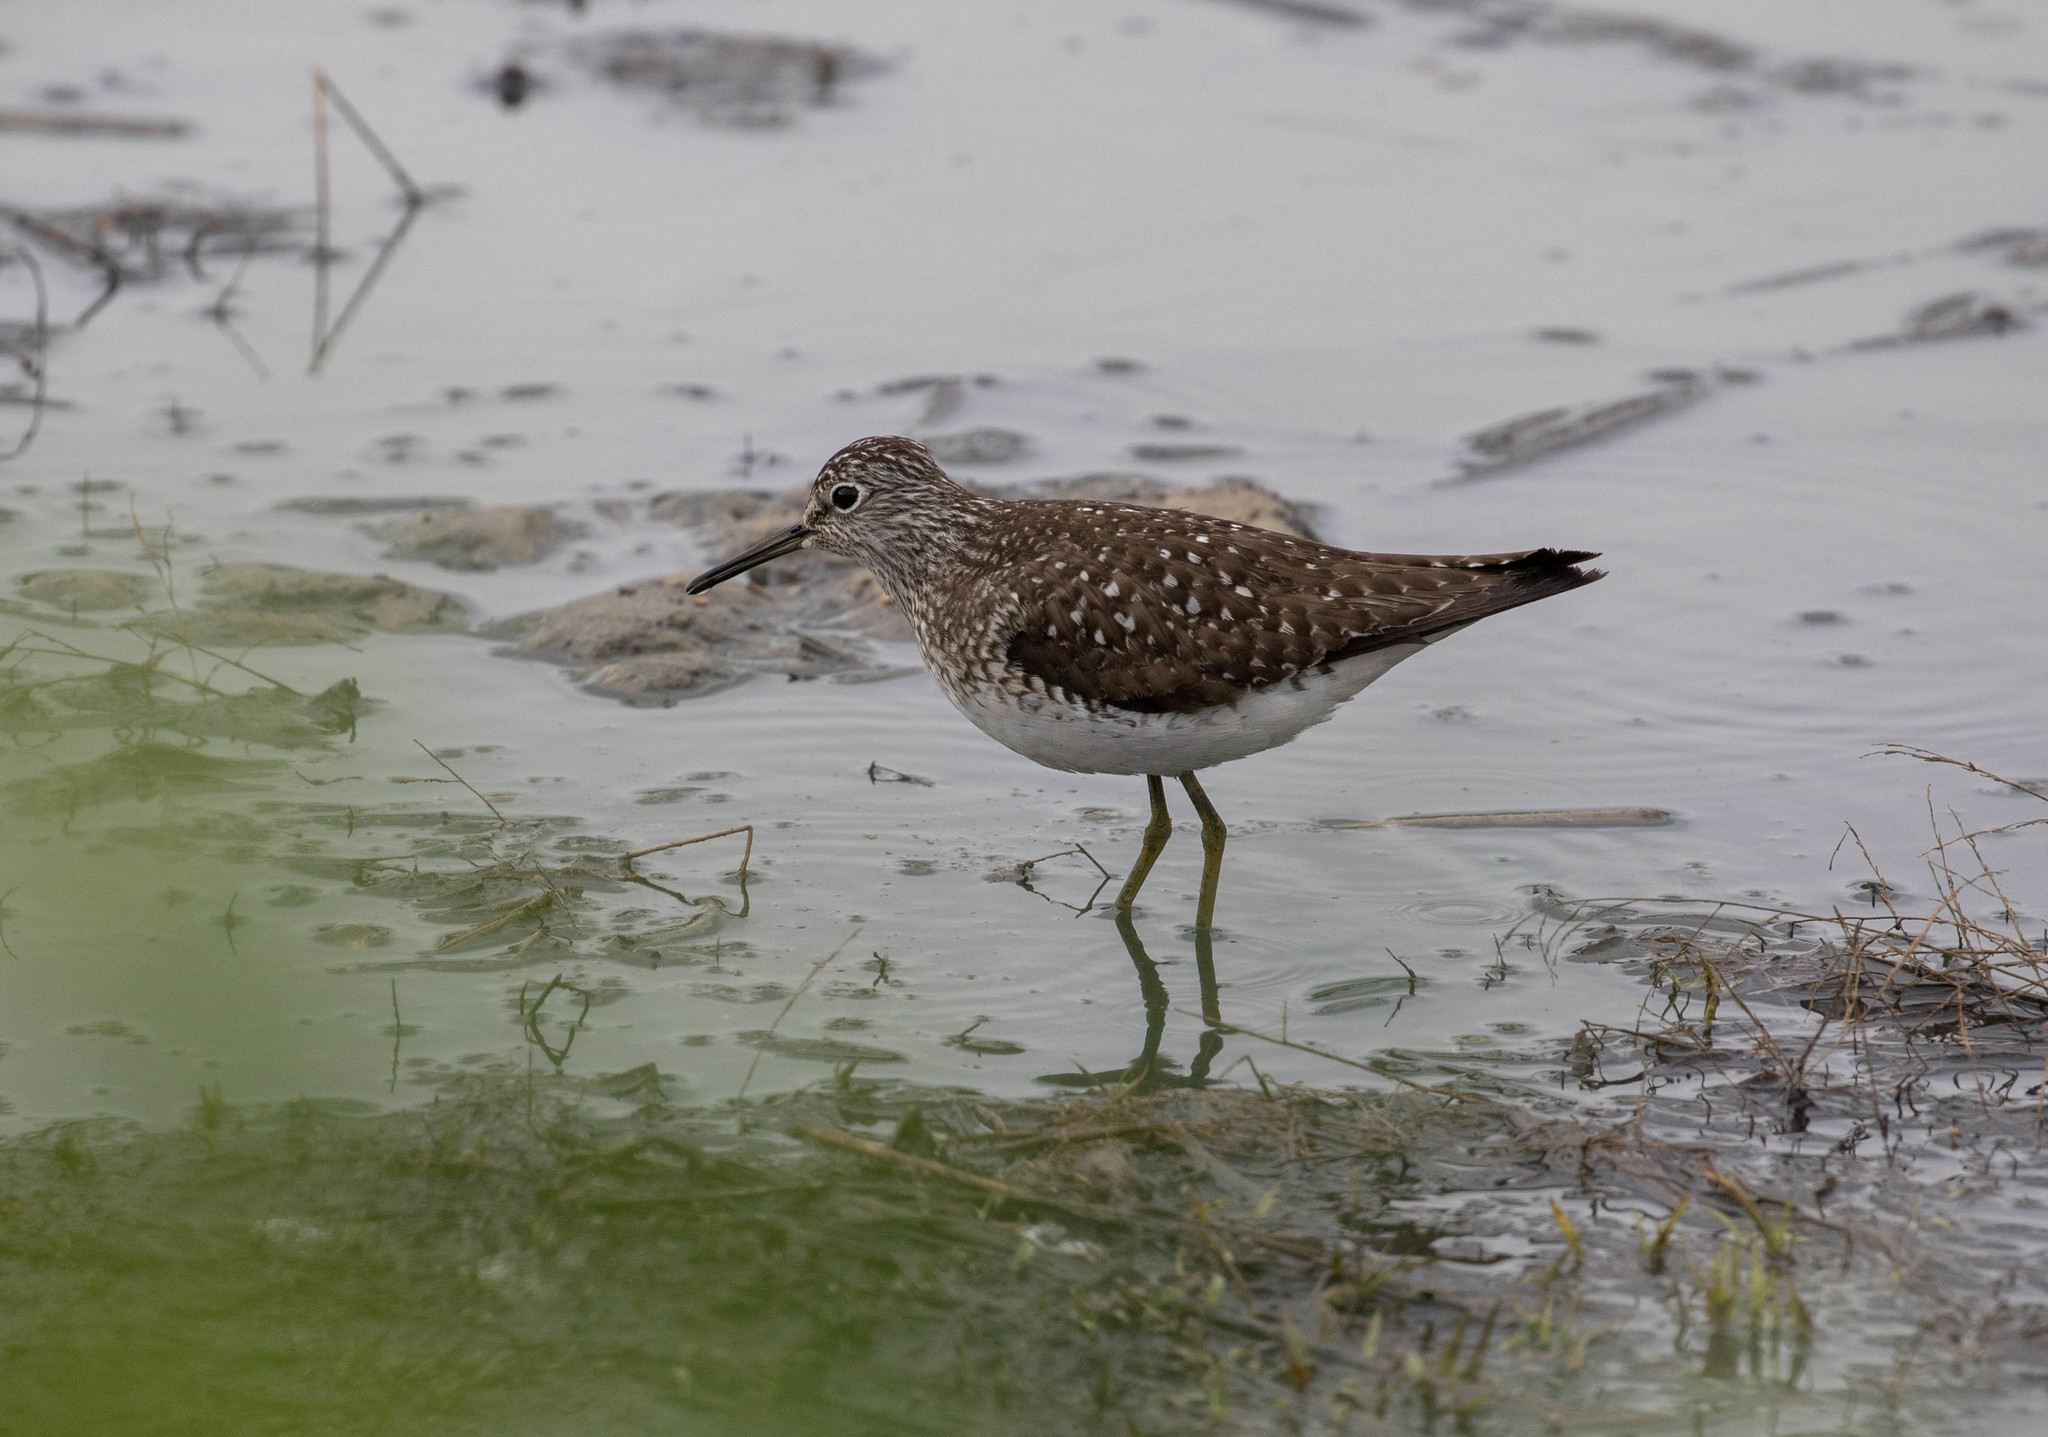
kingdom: Animalia
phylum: Chordata
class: Aves
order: Charadriiformes
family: Scolopacidae
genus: Tringa
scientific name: Tringa solitaria
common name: Solitary sandpiper
